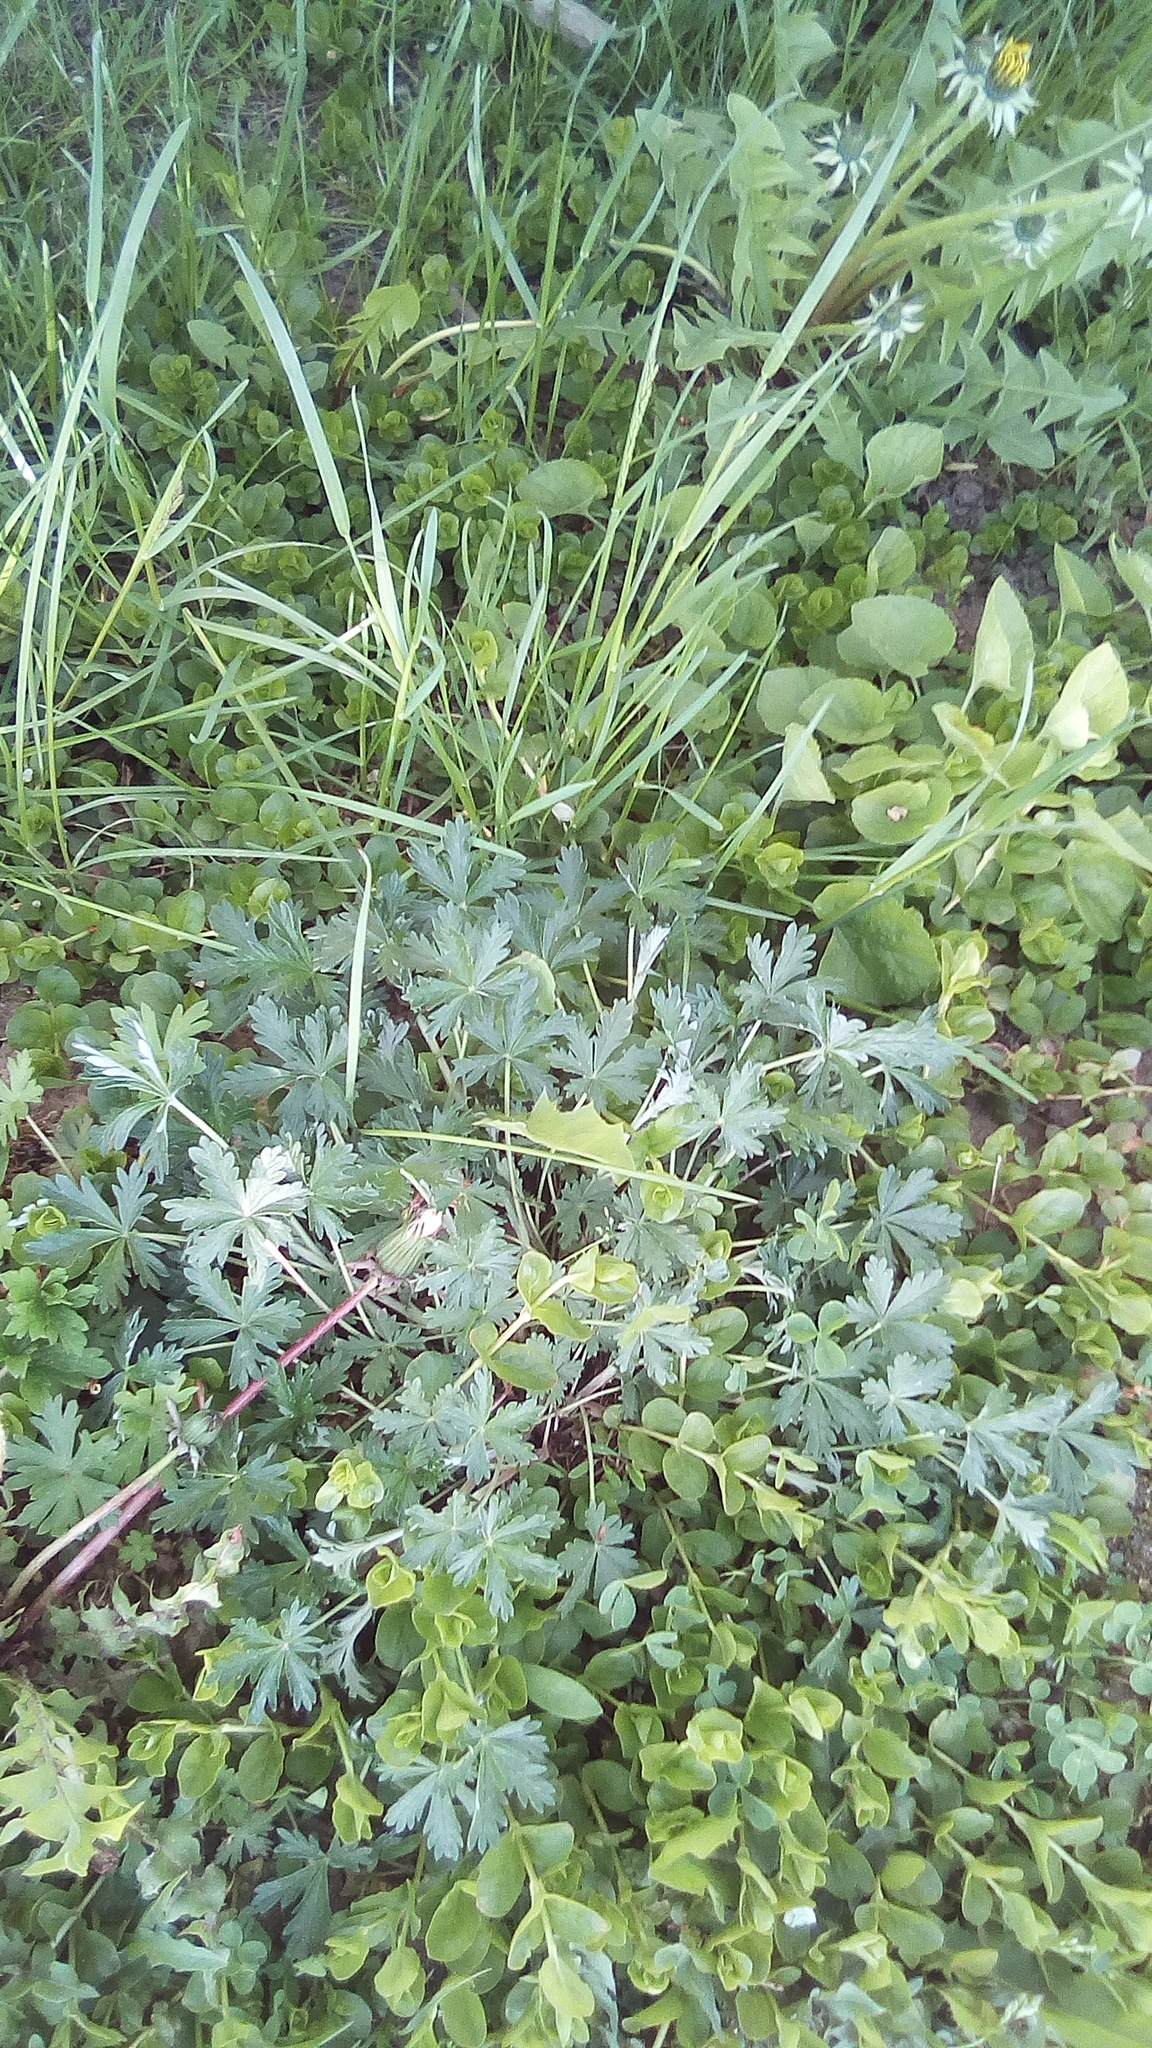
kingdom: Plantae
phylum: Tracheophyta
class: Magnoliopsida
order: Rosales
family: Rosaceae
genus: Potentilla
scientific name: Potentilla argentea
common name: Hoary cinquefoil
